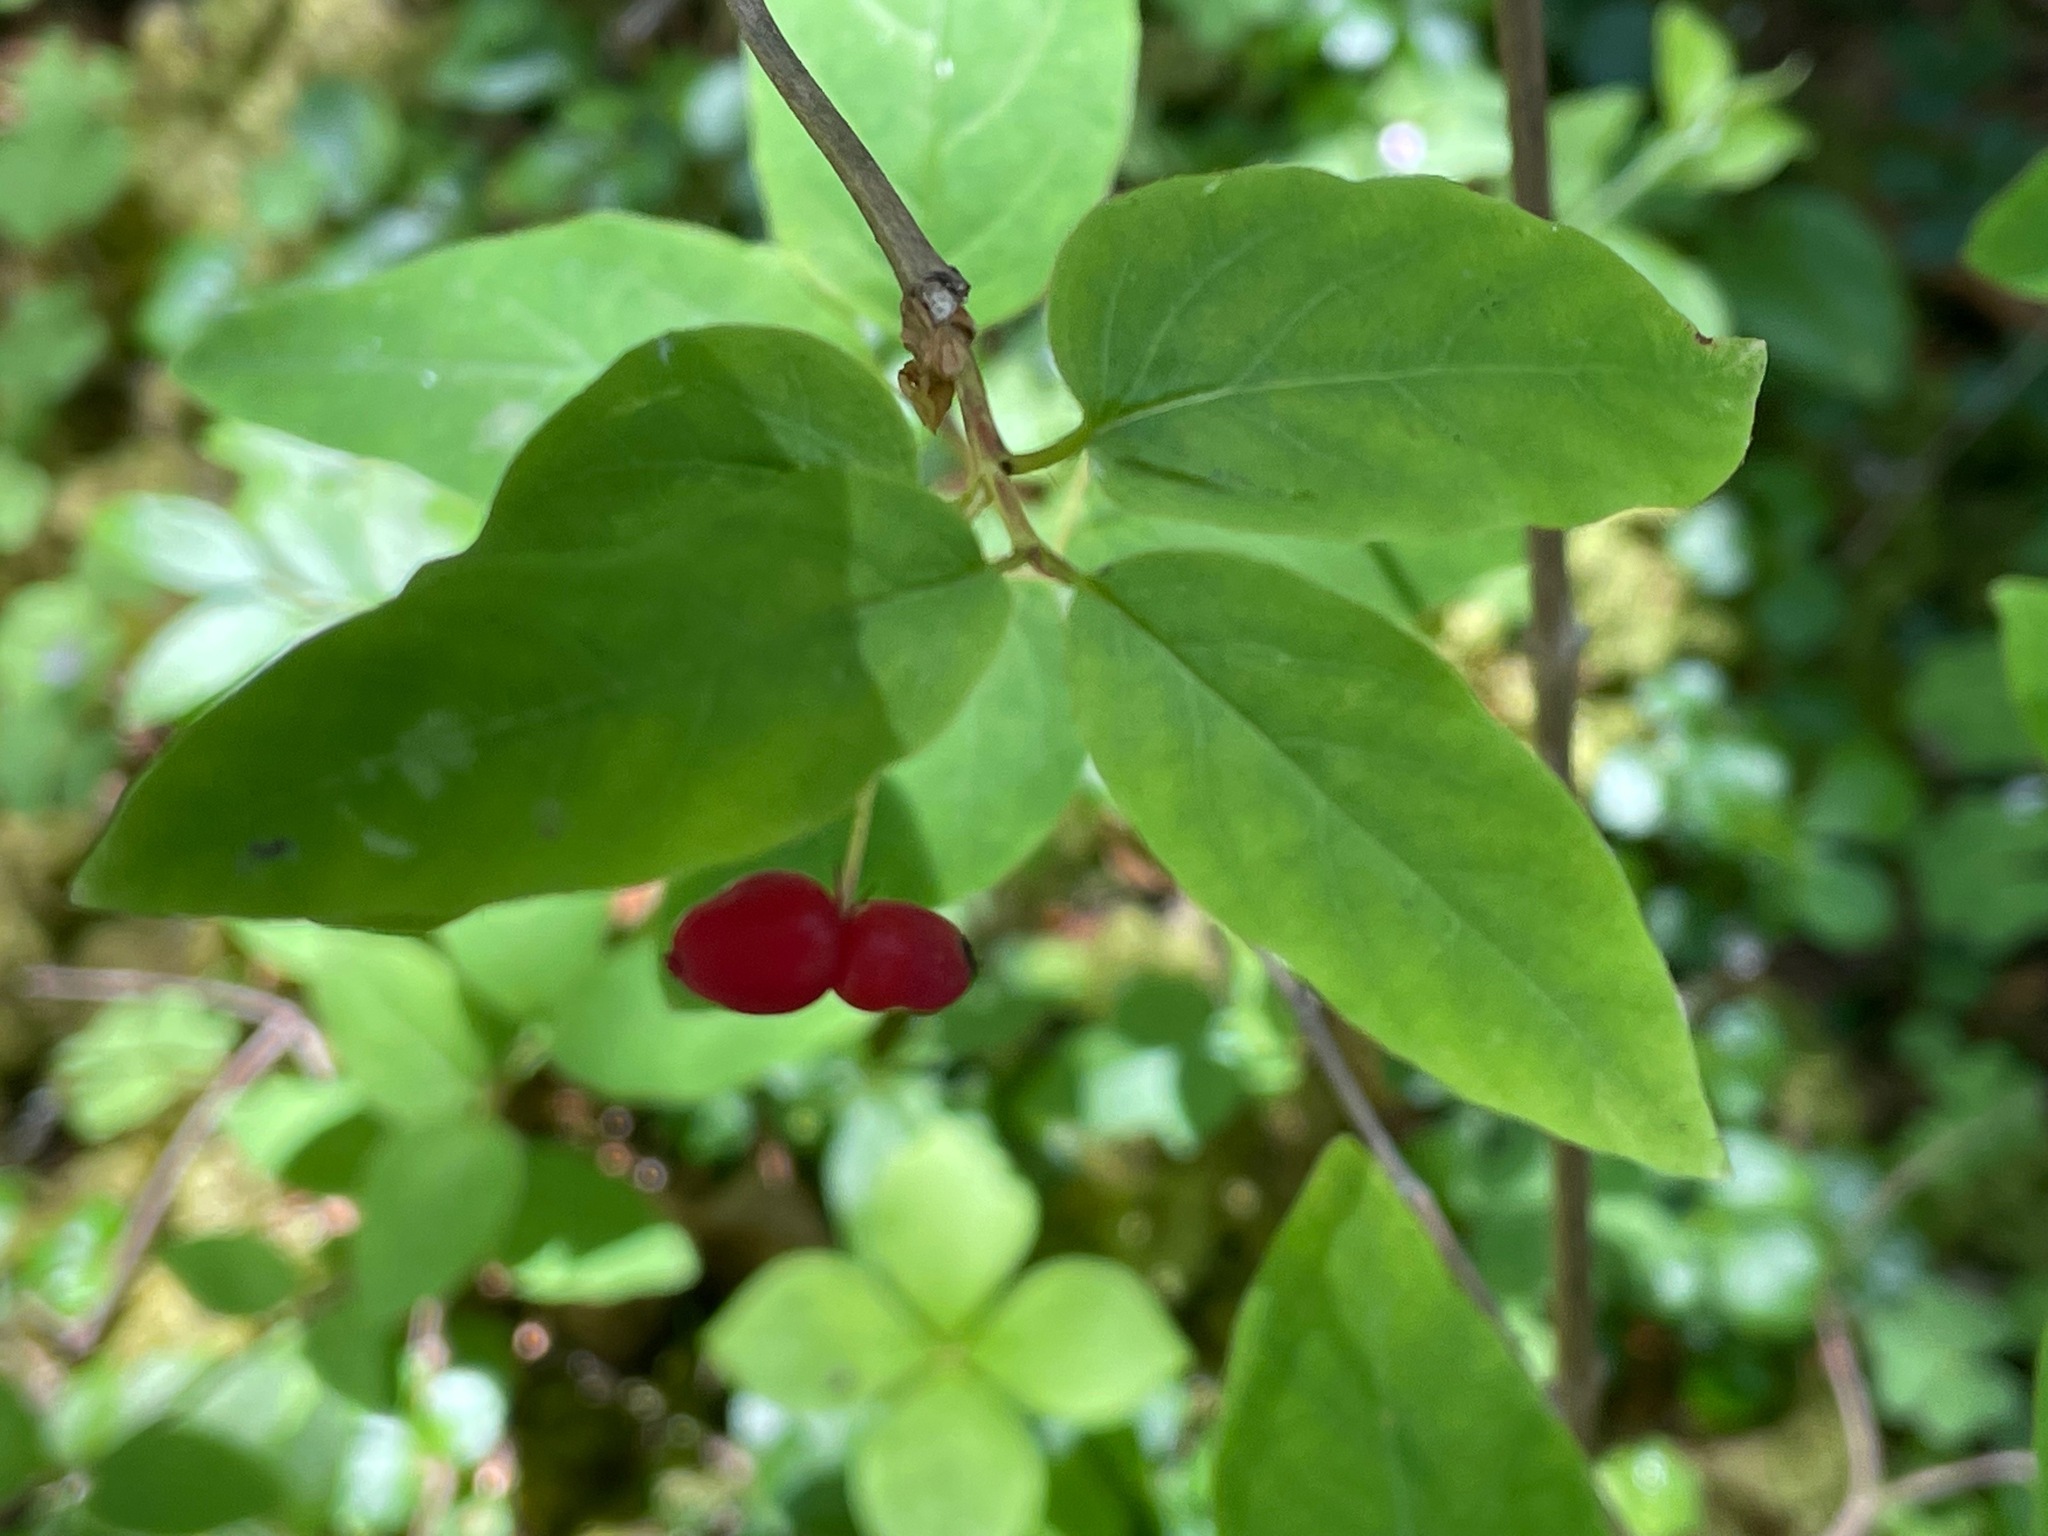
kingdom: Plantae
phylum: Tracheophyta
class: Magnoliopsida
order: Dipsacales
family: Caprifoliaceae
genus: Lonicera
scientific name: Lonicera canadensis
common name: American fly-honeysuckle
